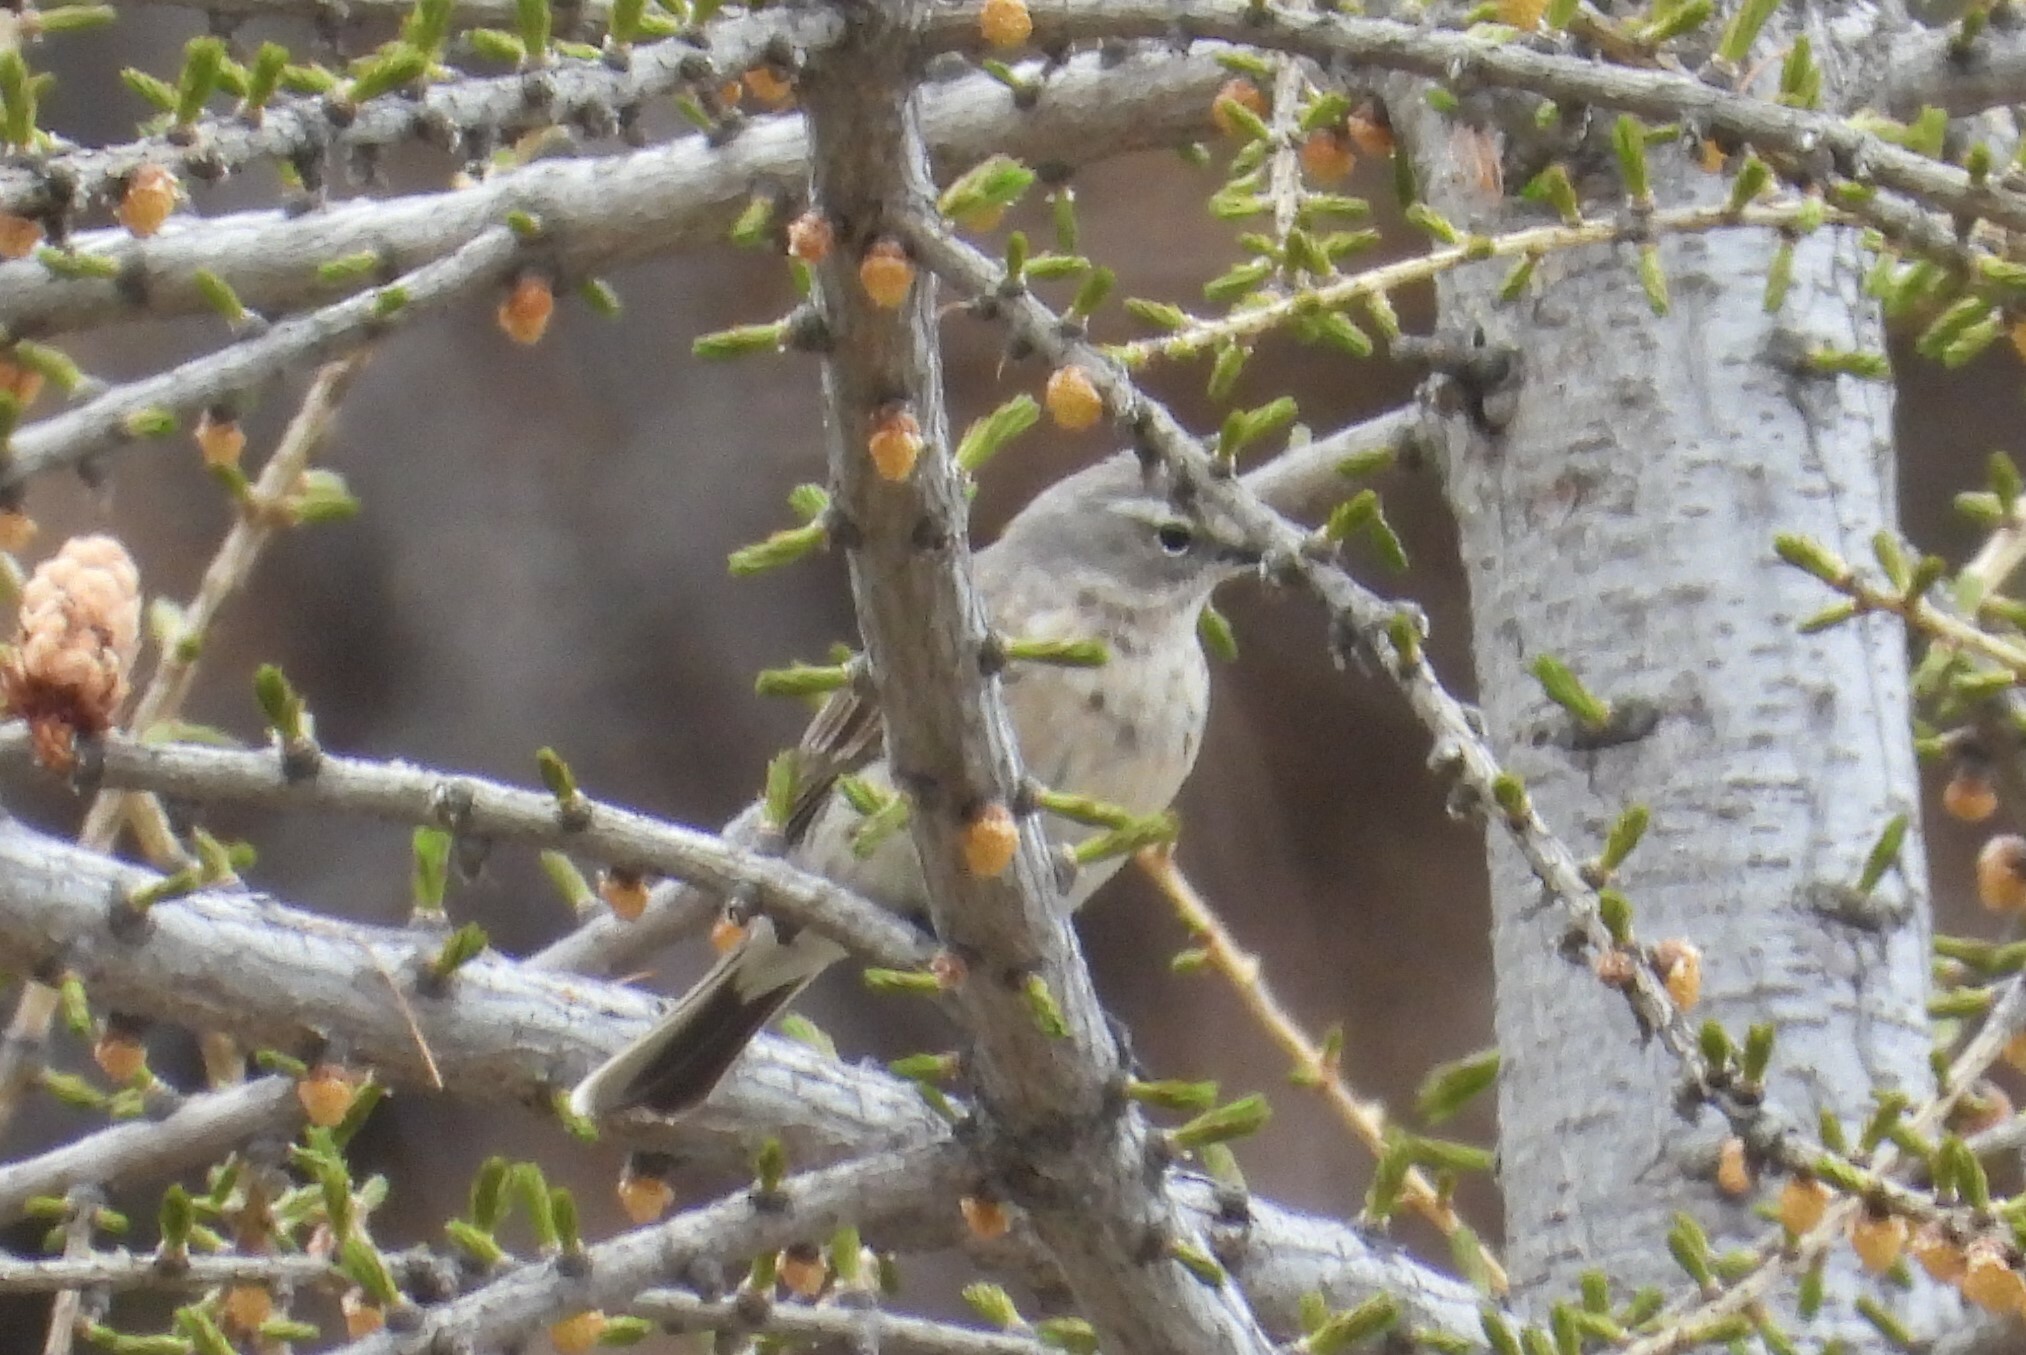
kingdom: Animalia
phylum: Chordata
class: Aves
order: Passeriformes
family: Motacillidae
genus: Anthus
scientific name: Anthus spinoletta
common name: Water pipit
